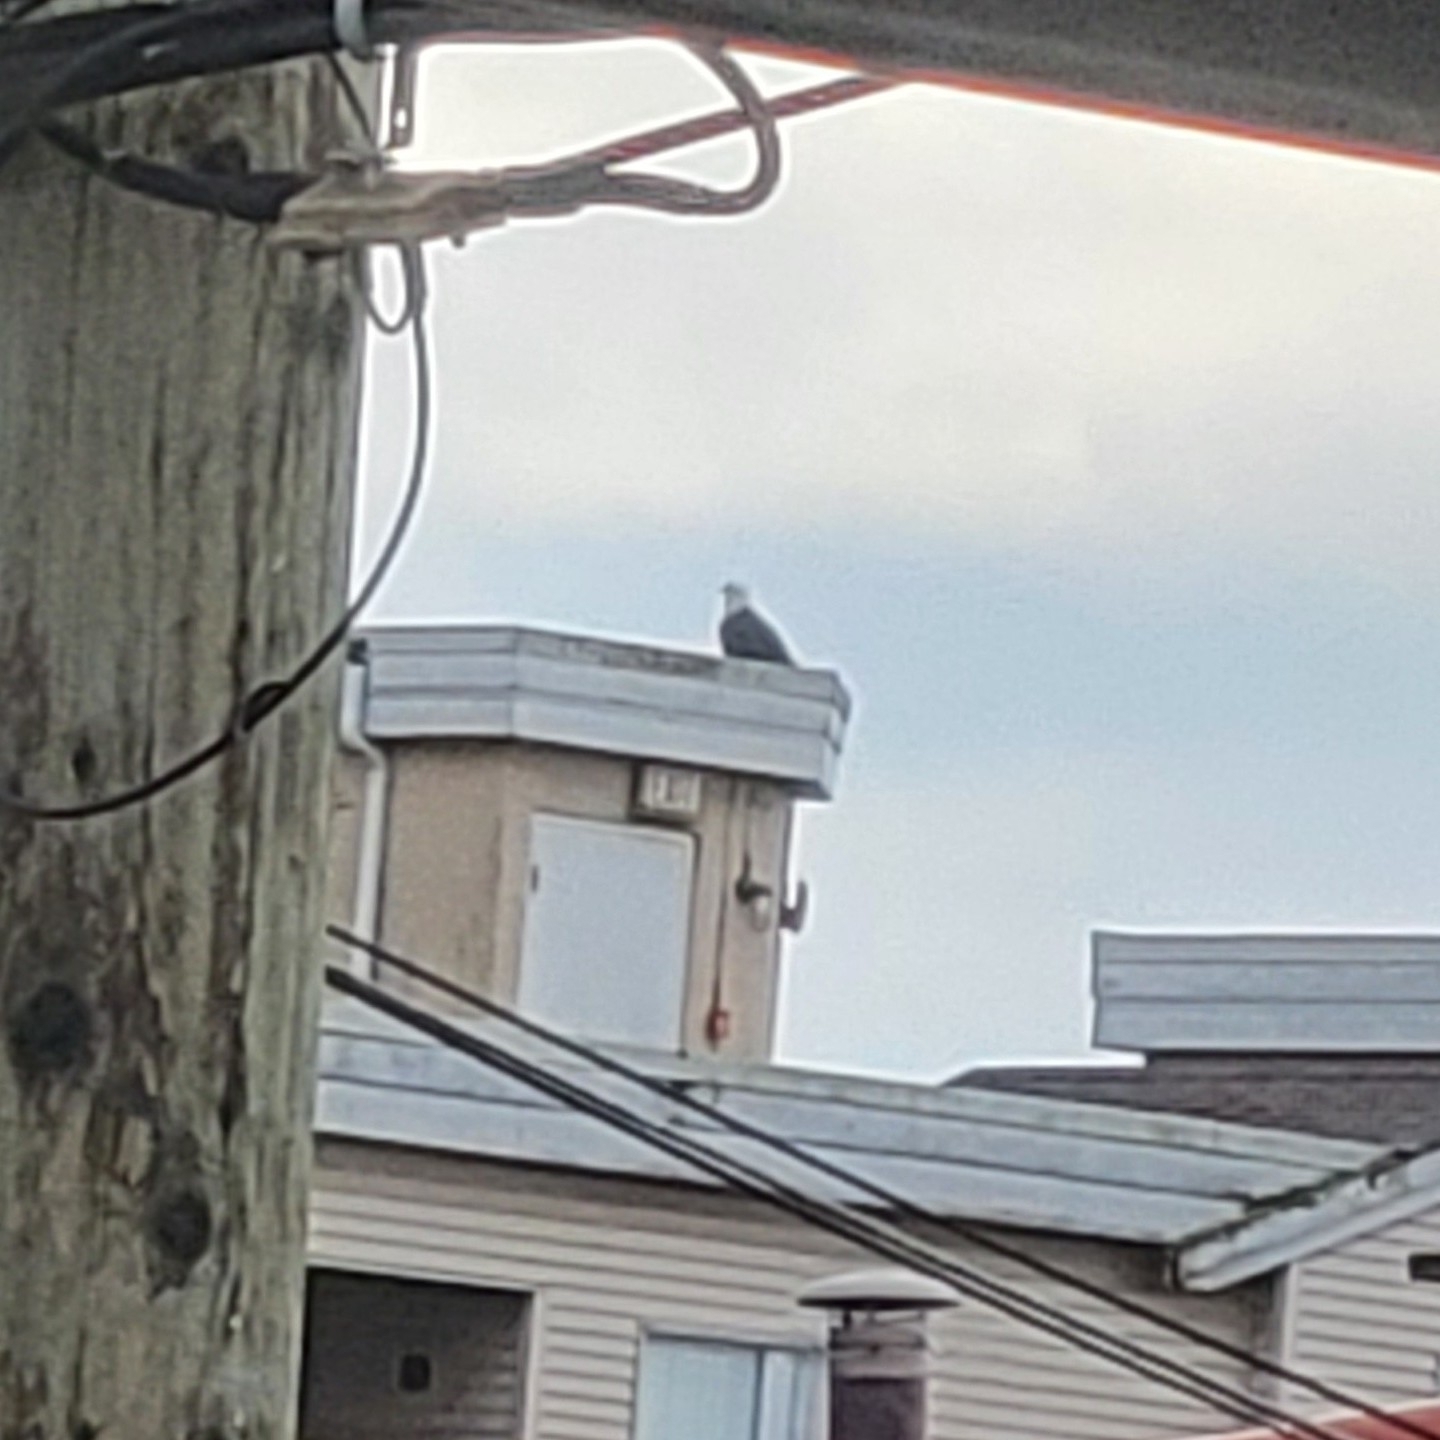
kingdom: Animalia
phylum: Chordata
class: Aves
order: Accipitriformes
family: Accipitridae
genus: Haliaeetus
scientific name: Haliaeetus leucocephalus
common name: Bald eagle
